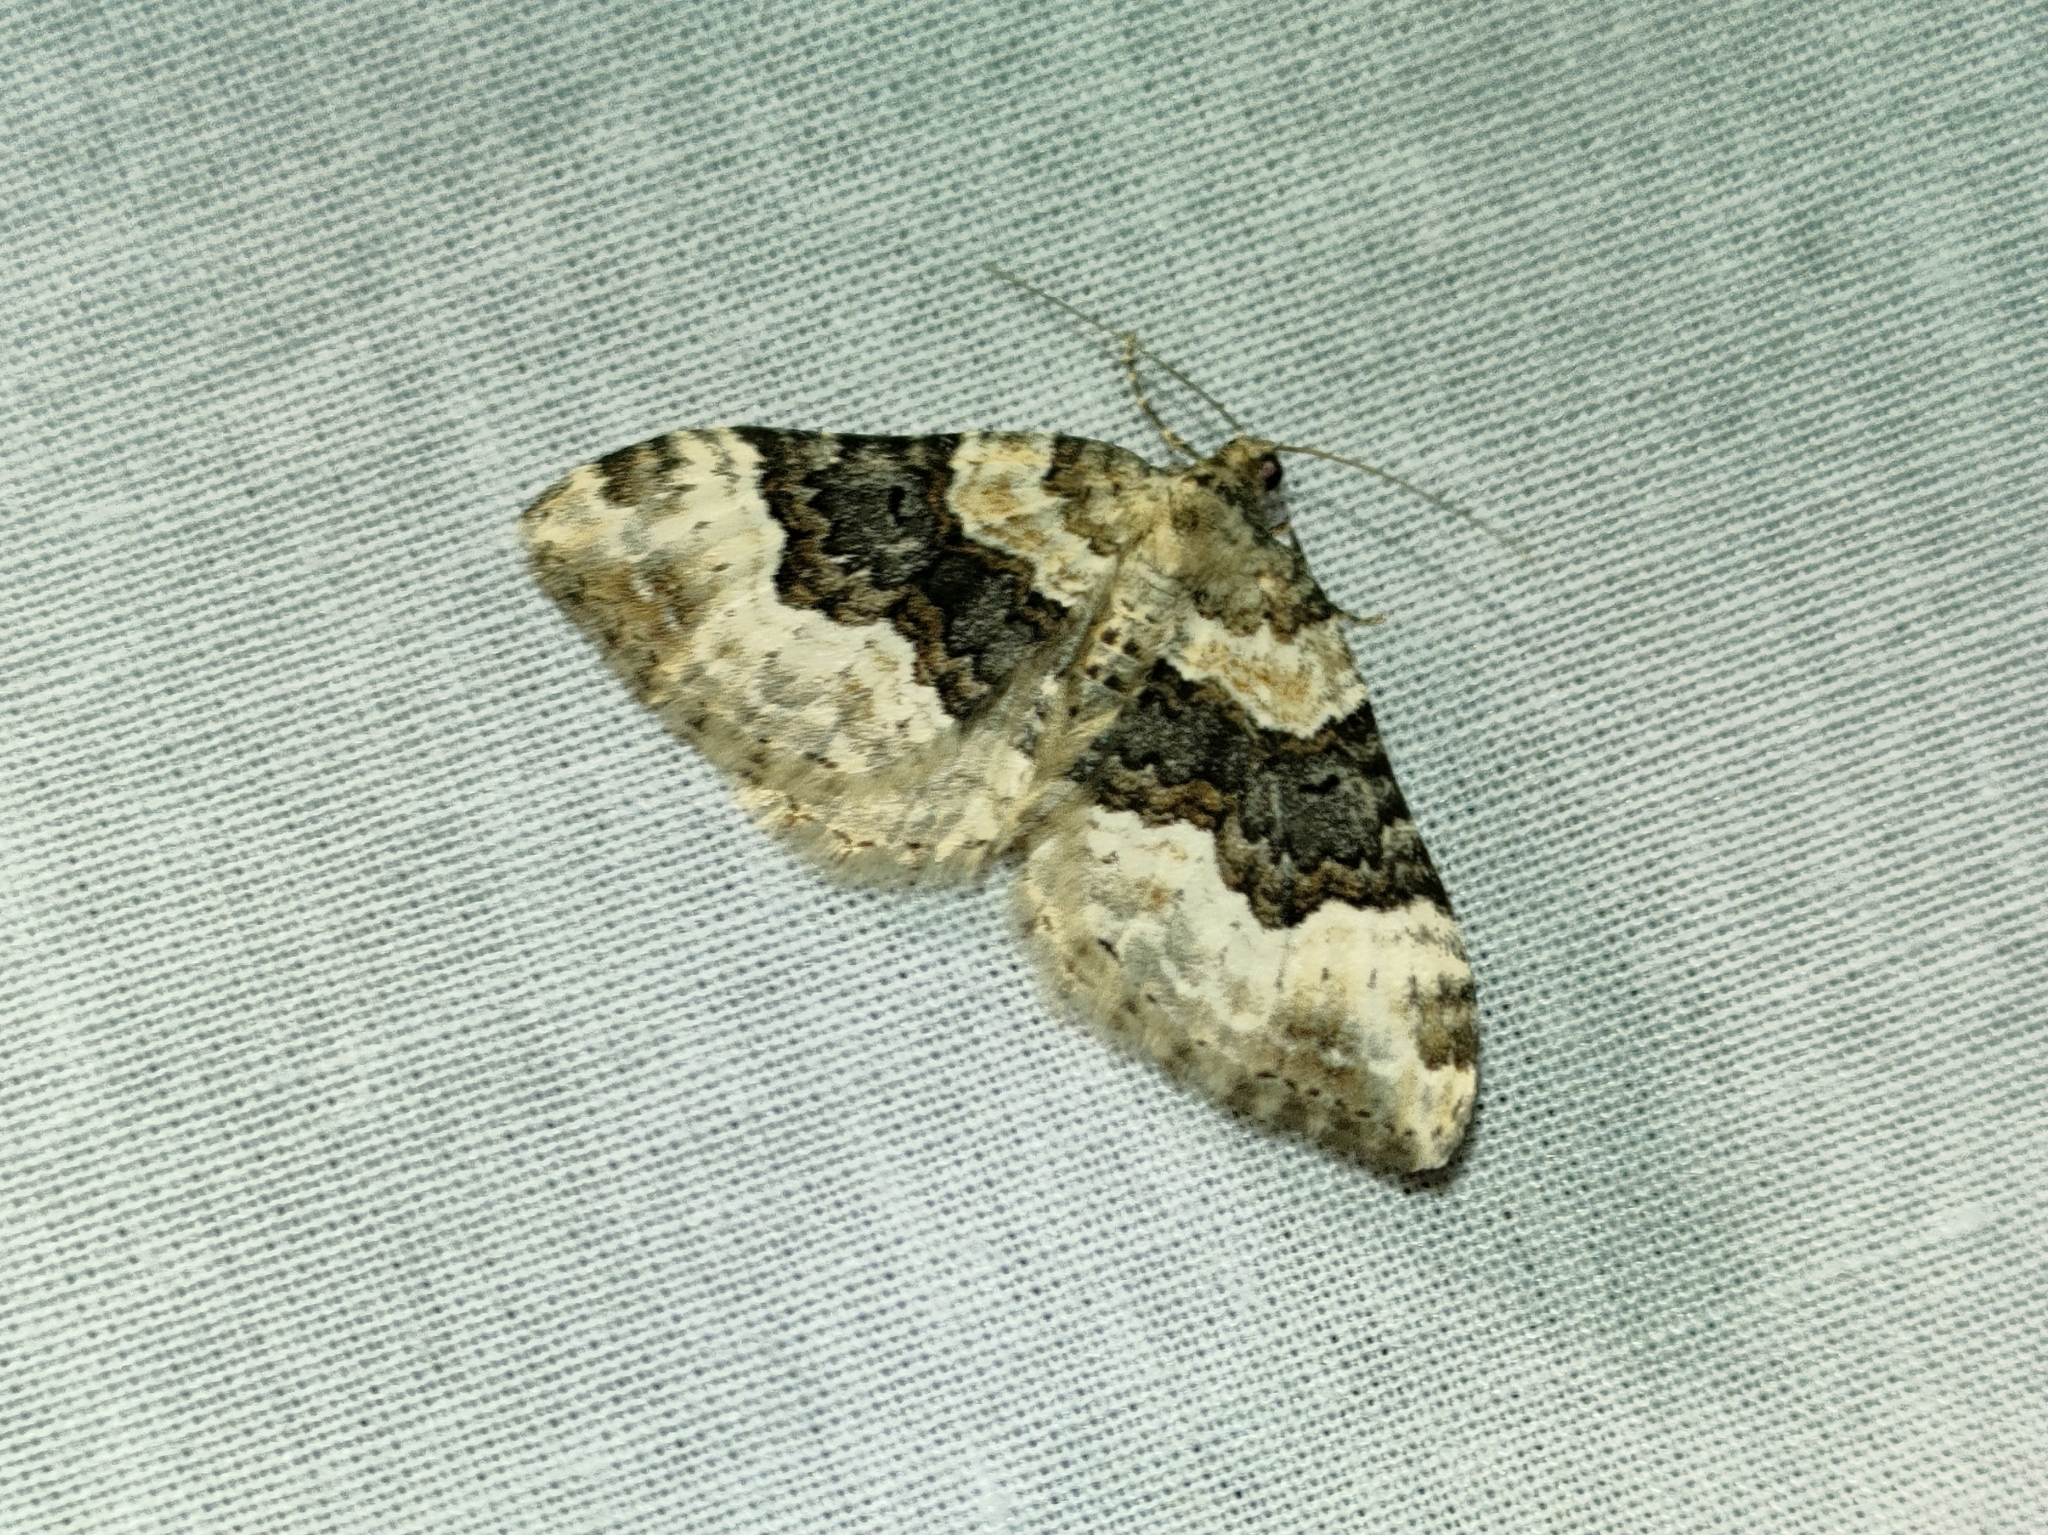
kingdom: Animalia
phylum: Arthropoda
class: Insecta
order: Lepidoptera
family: Geometridae
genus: Epirrhoe
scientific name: Epirrhoe galiata
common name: Galium carpet
